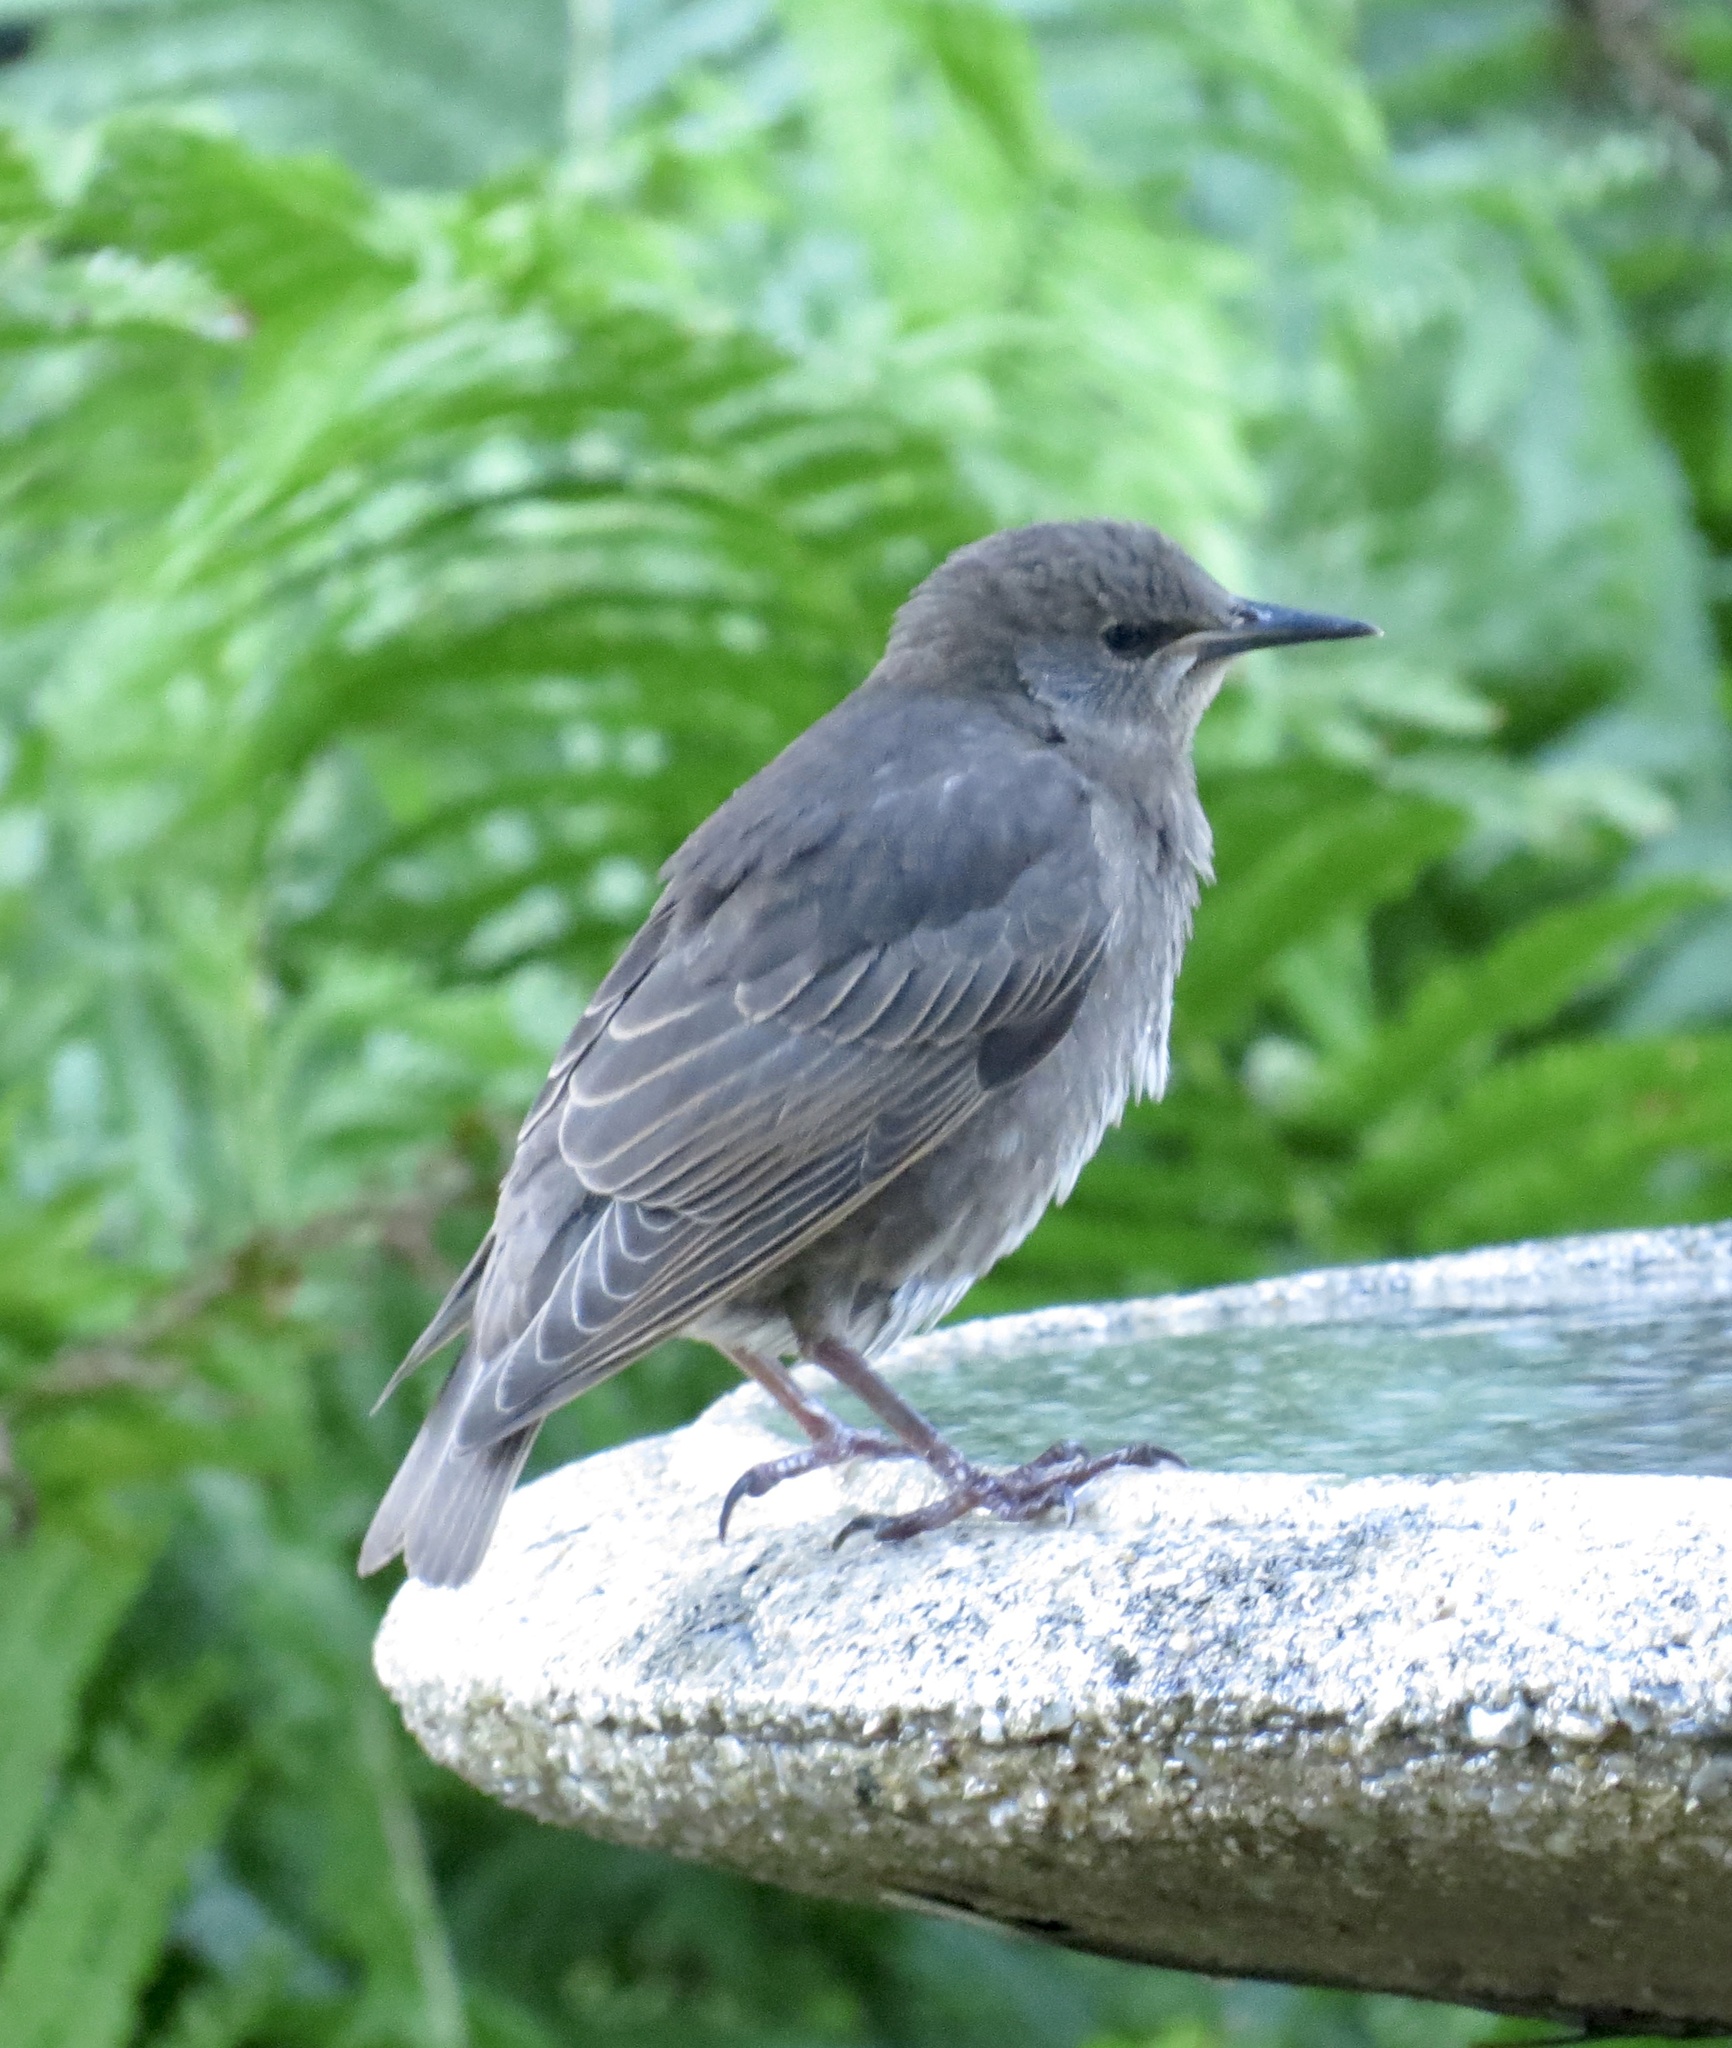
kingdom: Animalia
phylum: Chordata
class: Aves
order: Passeriformes
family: Sturnidae
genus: Sturnus
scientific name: Sturnus vulgaris
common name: Common starling
